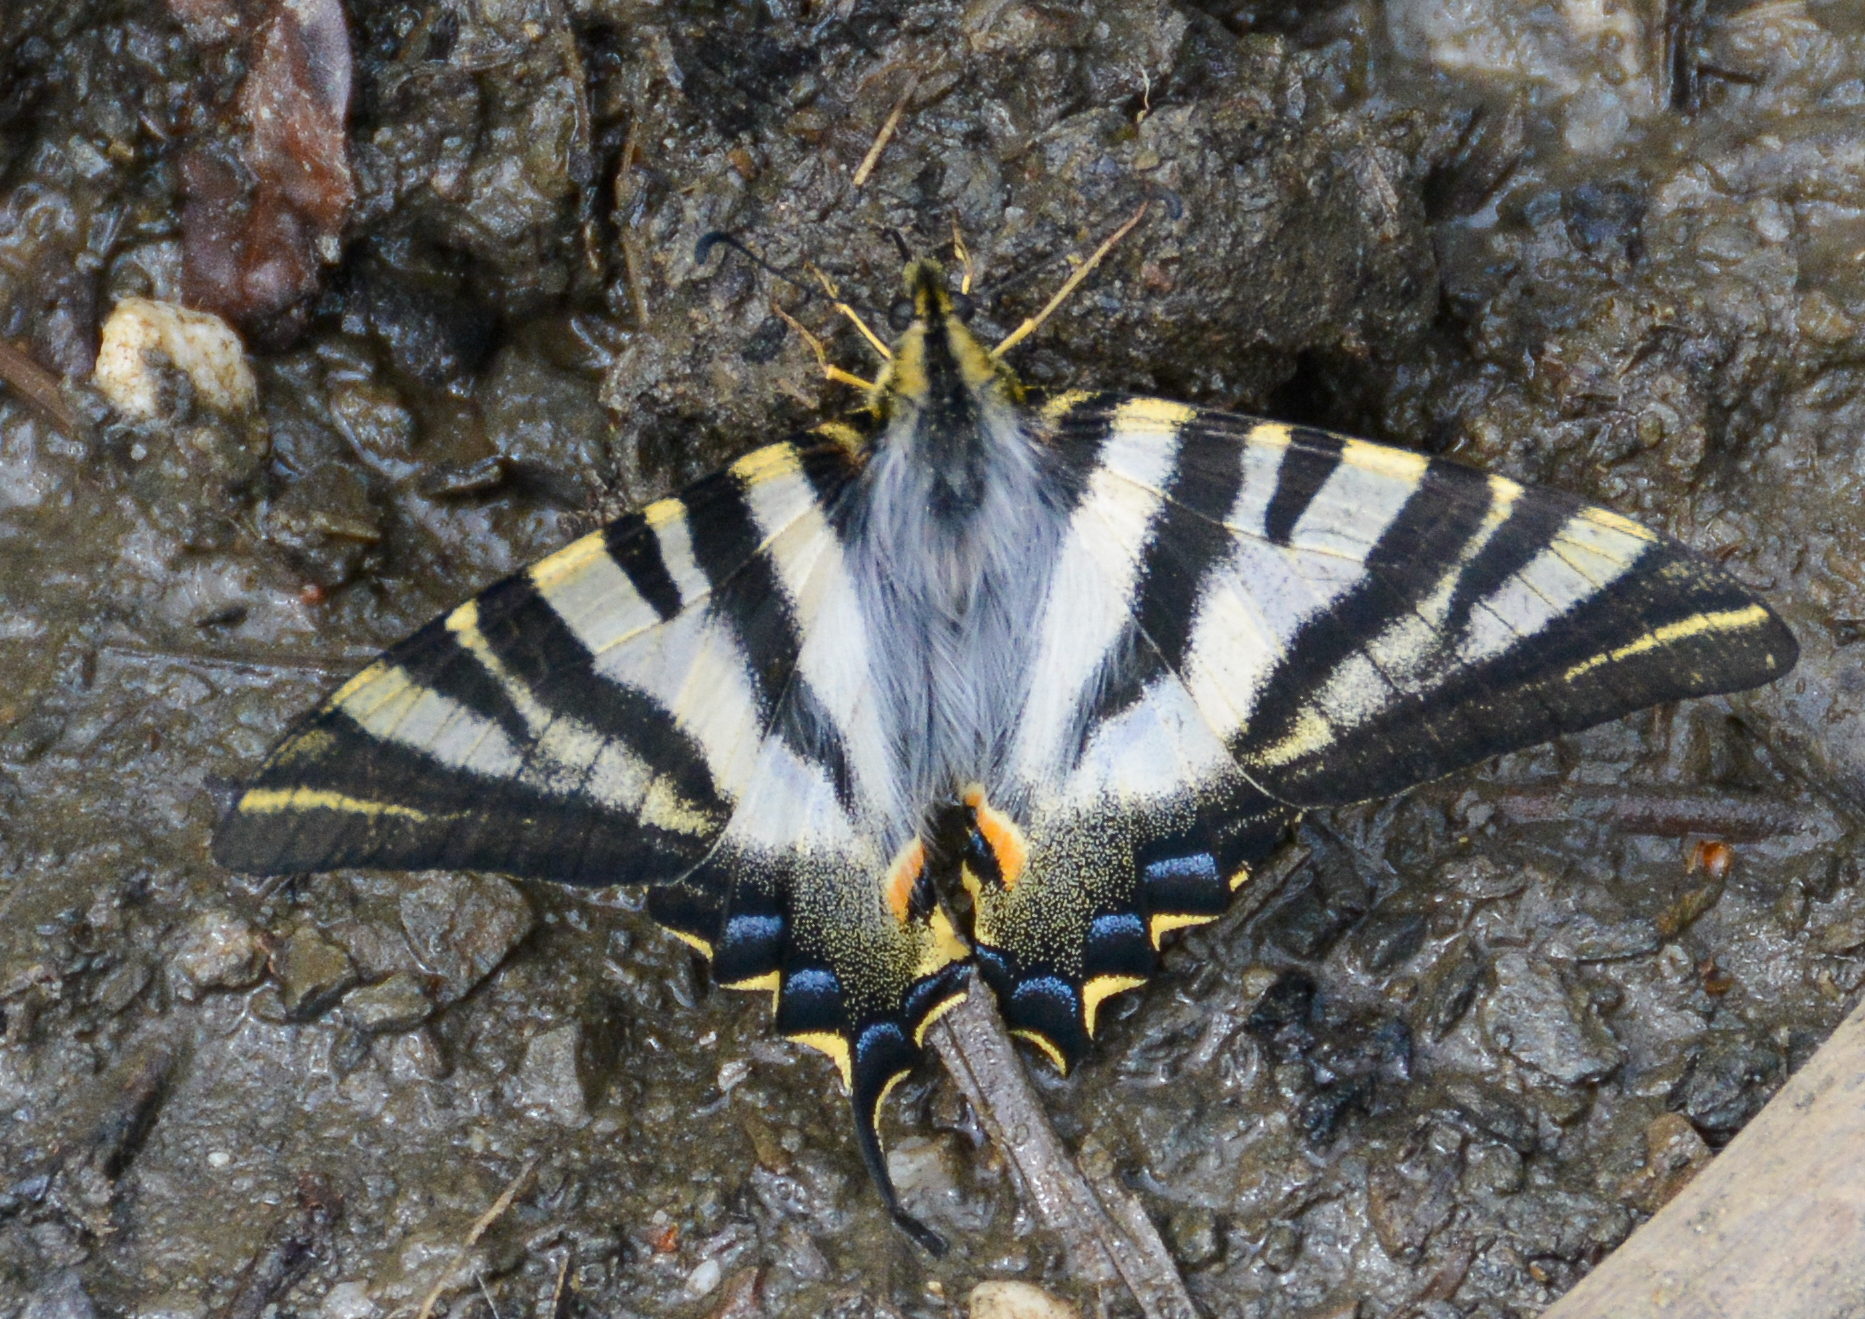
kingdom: Animalia
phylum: Arthropoda
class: Insecta
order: Lepidoptera
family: Papilionidae
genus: Iphiclides
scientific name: Iphiclides feisthamelii
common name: Iberian scarce swallowtail
